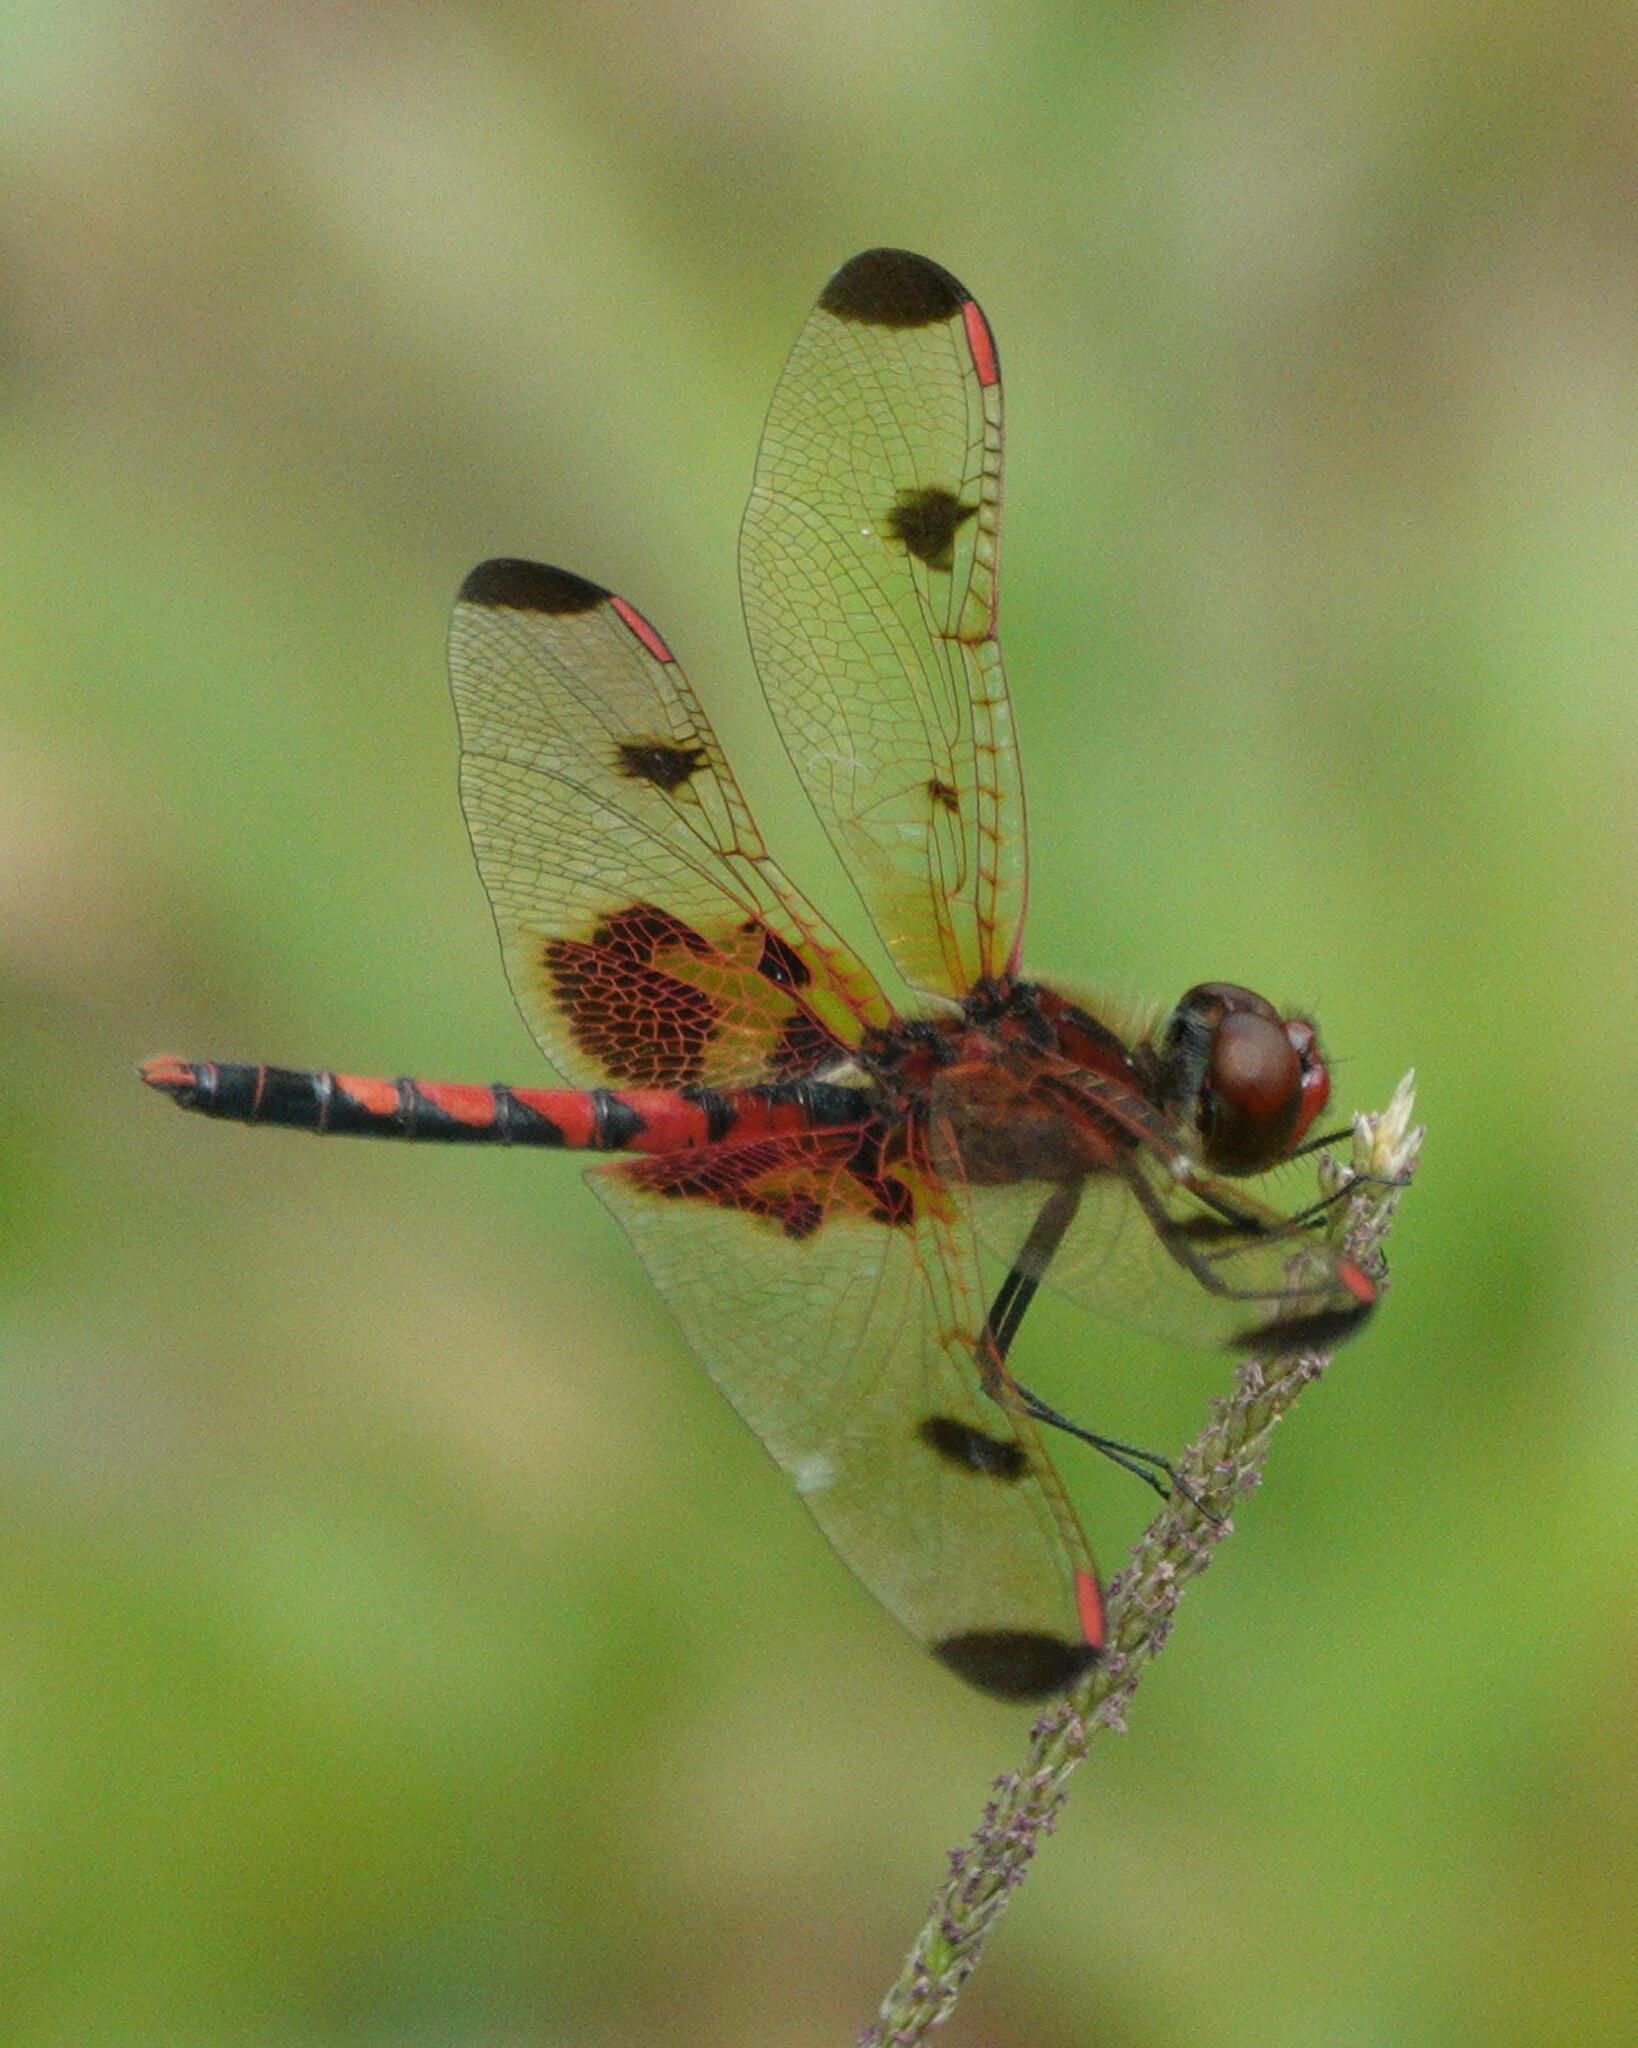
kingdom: Animalia
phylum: Arthropoda
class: Insecta
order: Odonata
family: Libellulidae
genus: Celithemis
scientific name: Celithemis elisa
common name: Calico pennant
